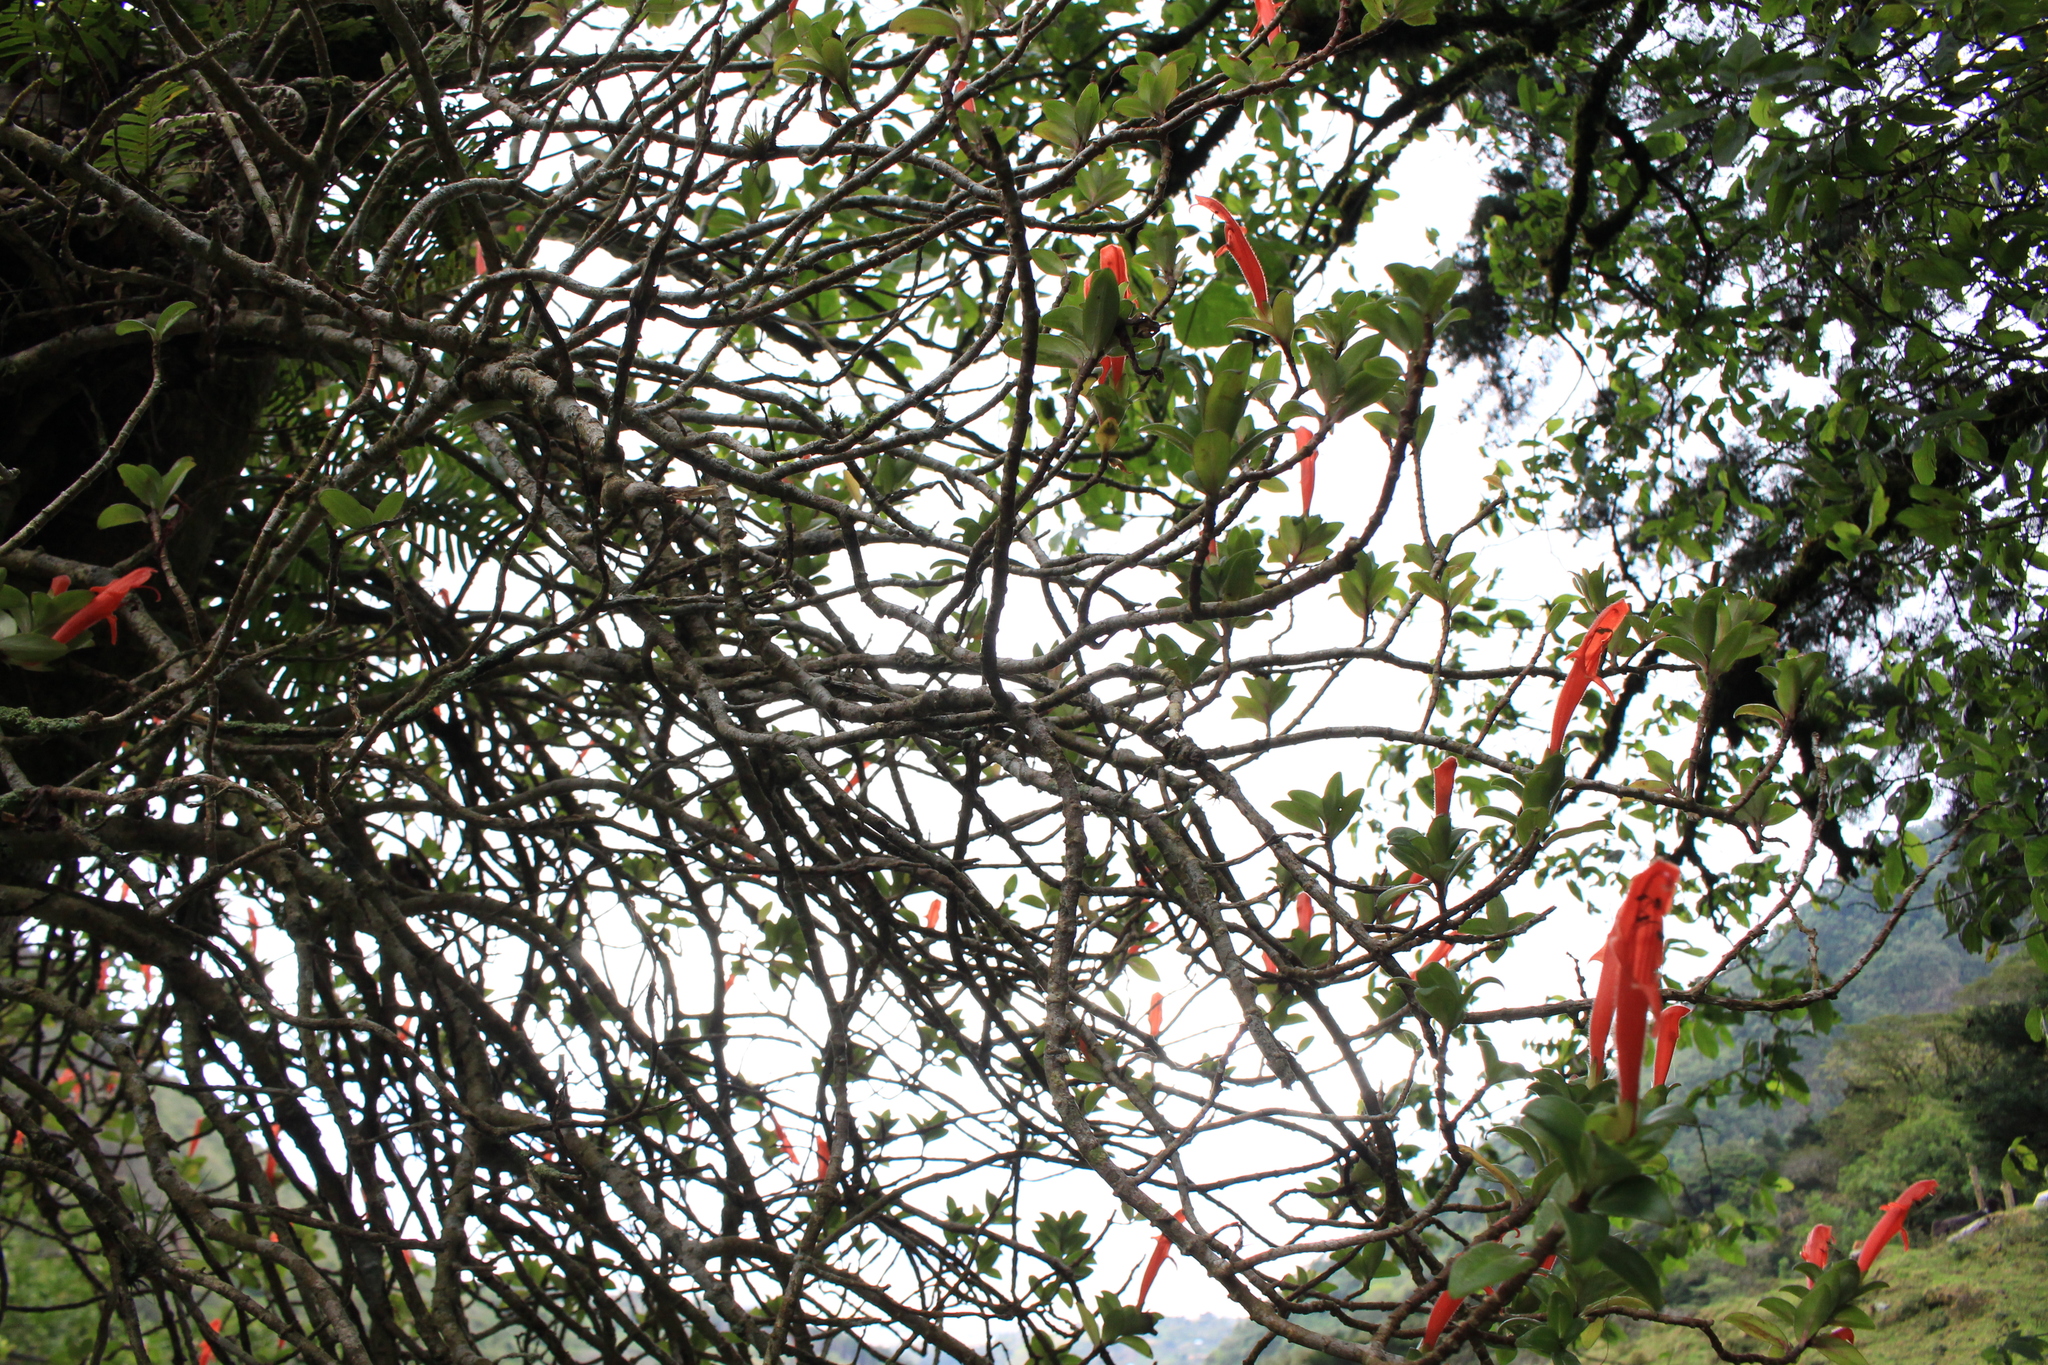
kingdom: Plantae
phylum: Tracheophyta
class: Magnoliopsida
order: Lamiales
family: Gesneriaceae
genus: Columnea
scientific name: Columnea glabra
